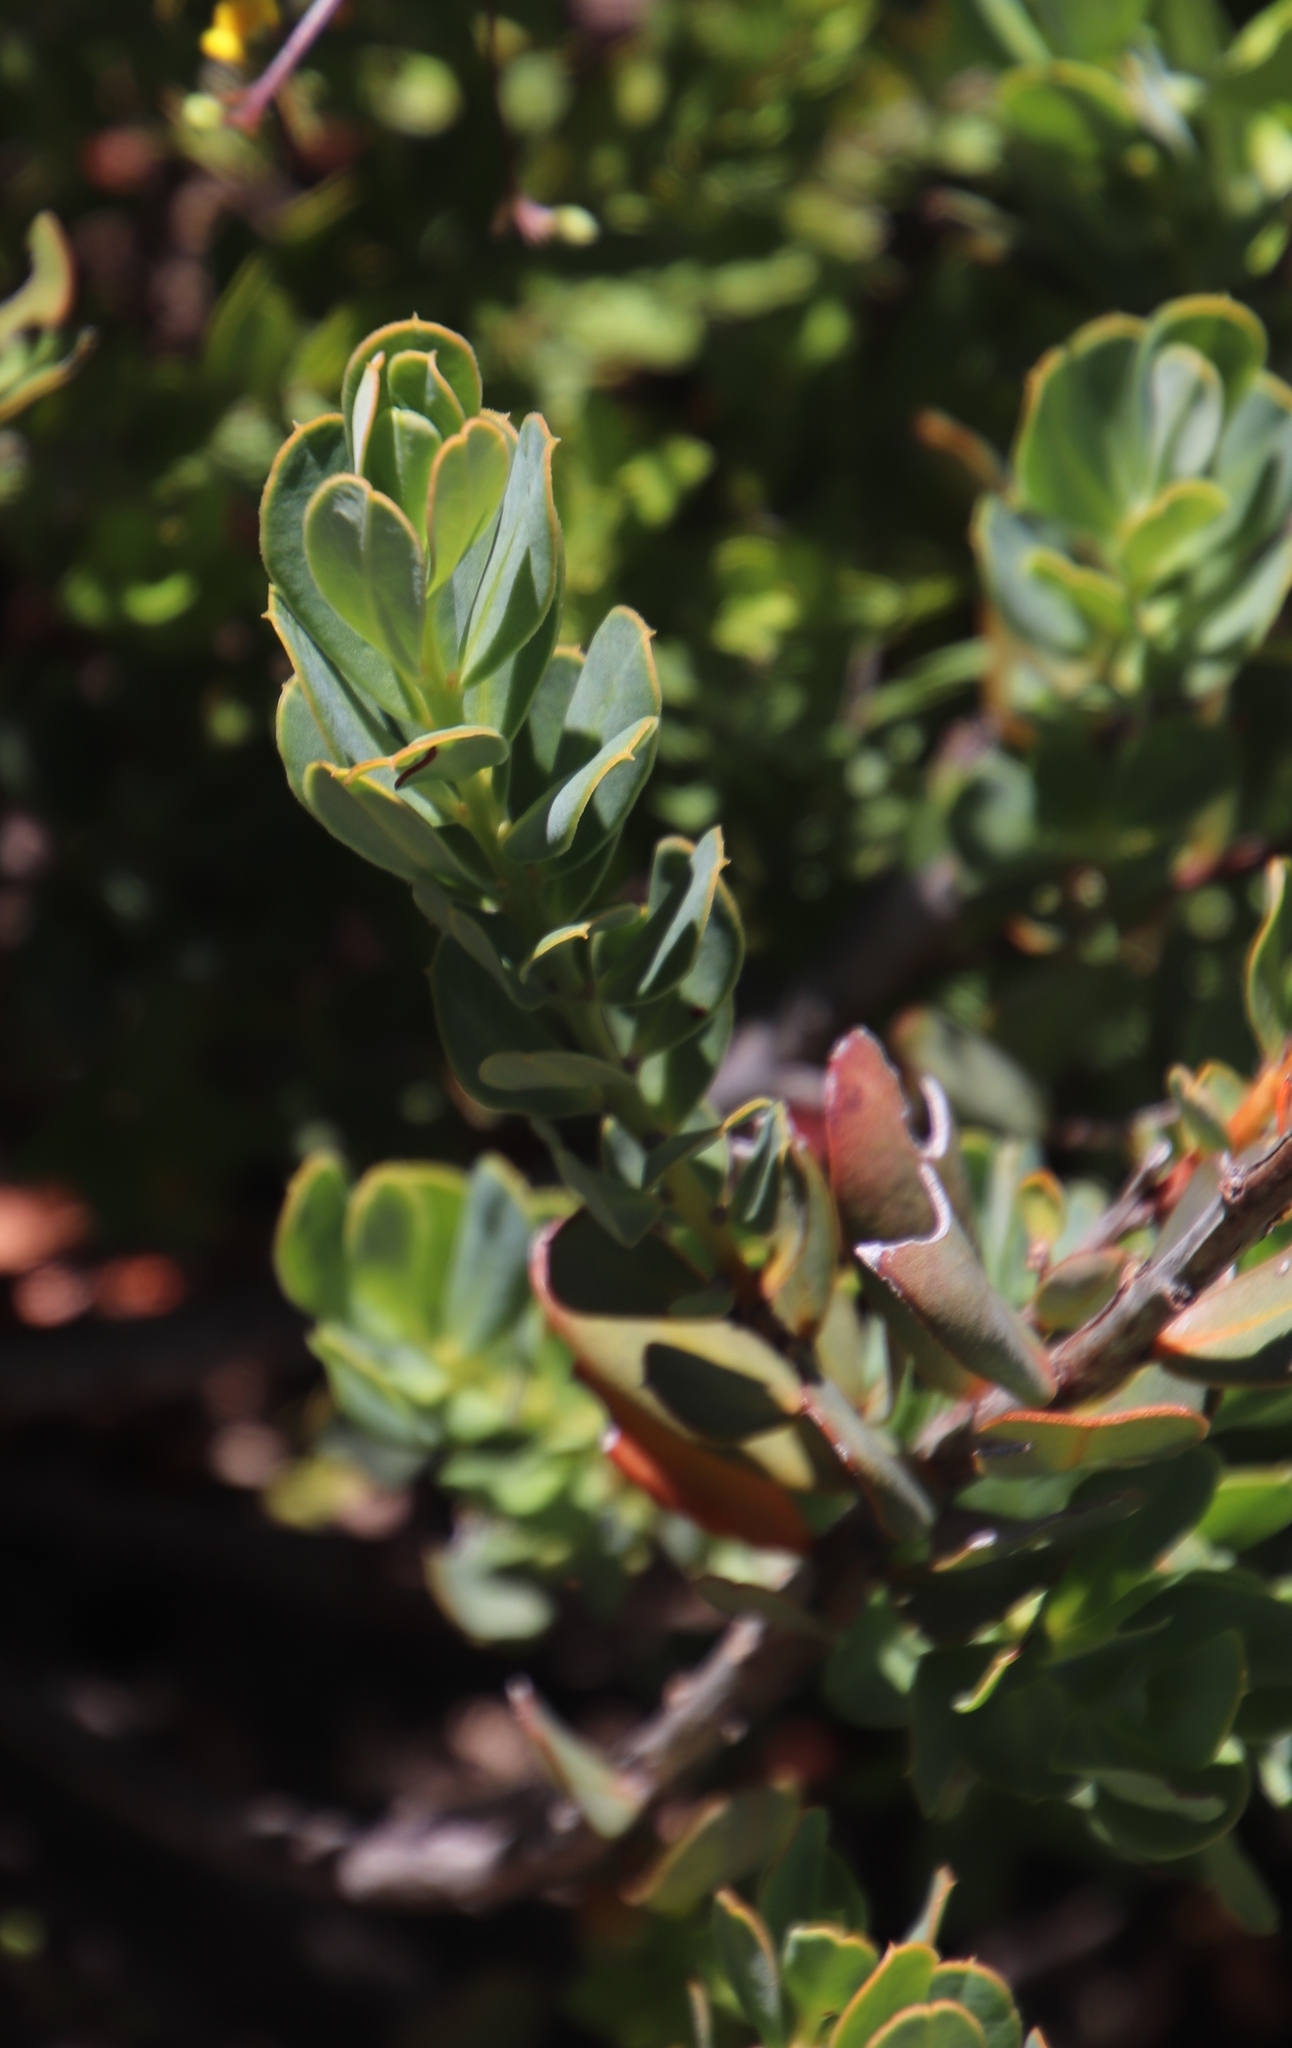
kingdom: Plantae
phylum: Tracheophyta
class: Magnoliopsida
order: Santalales
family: Santalaceae
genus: Osyris
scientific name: Osyris compressa
